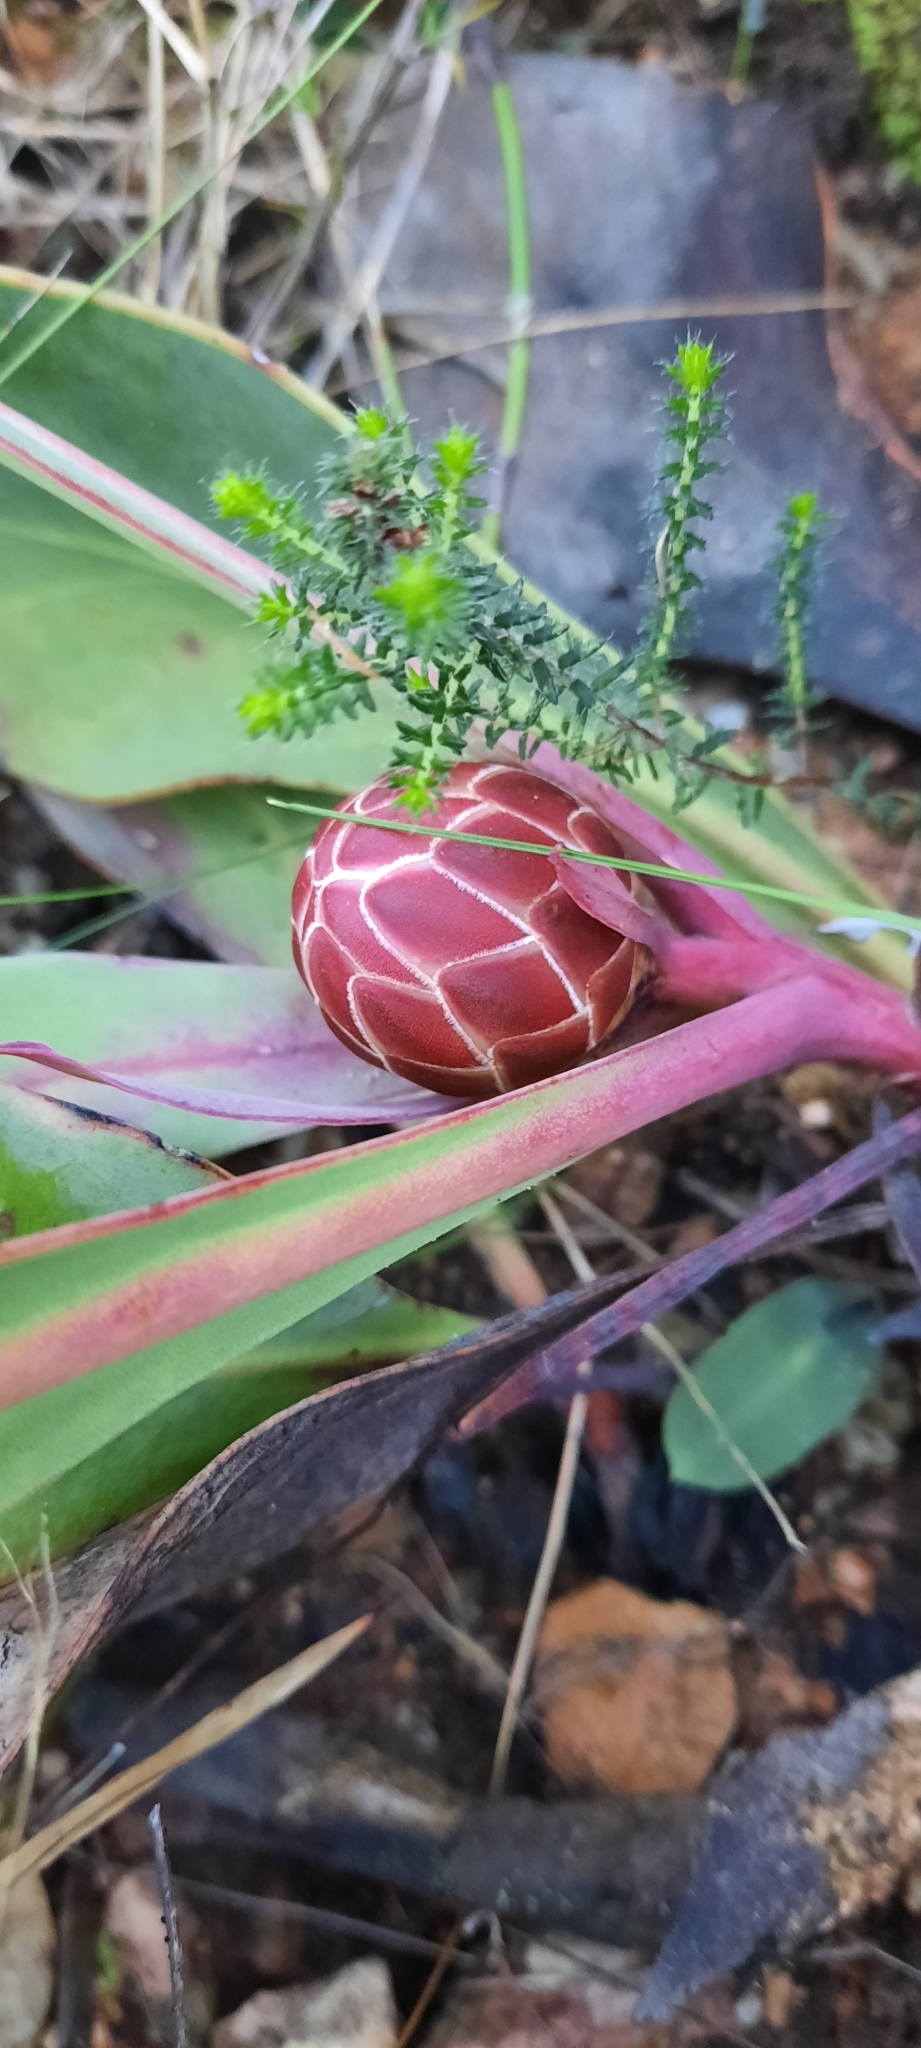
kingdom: Plantae
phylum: Tracheophyta
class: Magnoliopsida
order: Proteales
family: Proteaceae
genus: Protea
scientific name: Protea acaulos
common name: Common ground sugarbush
